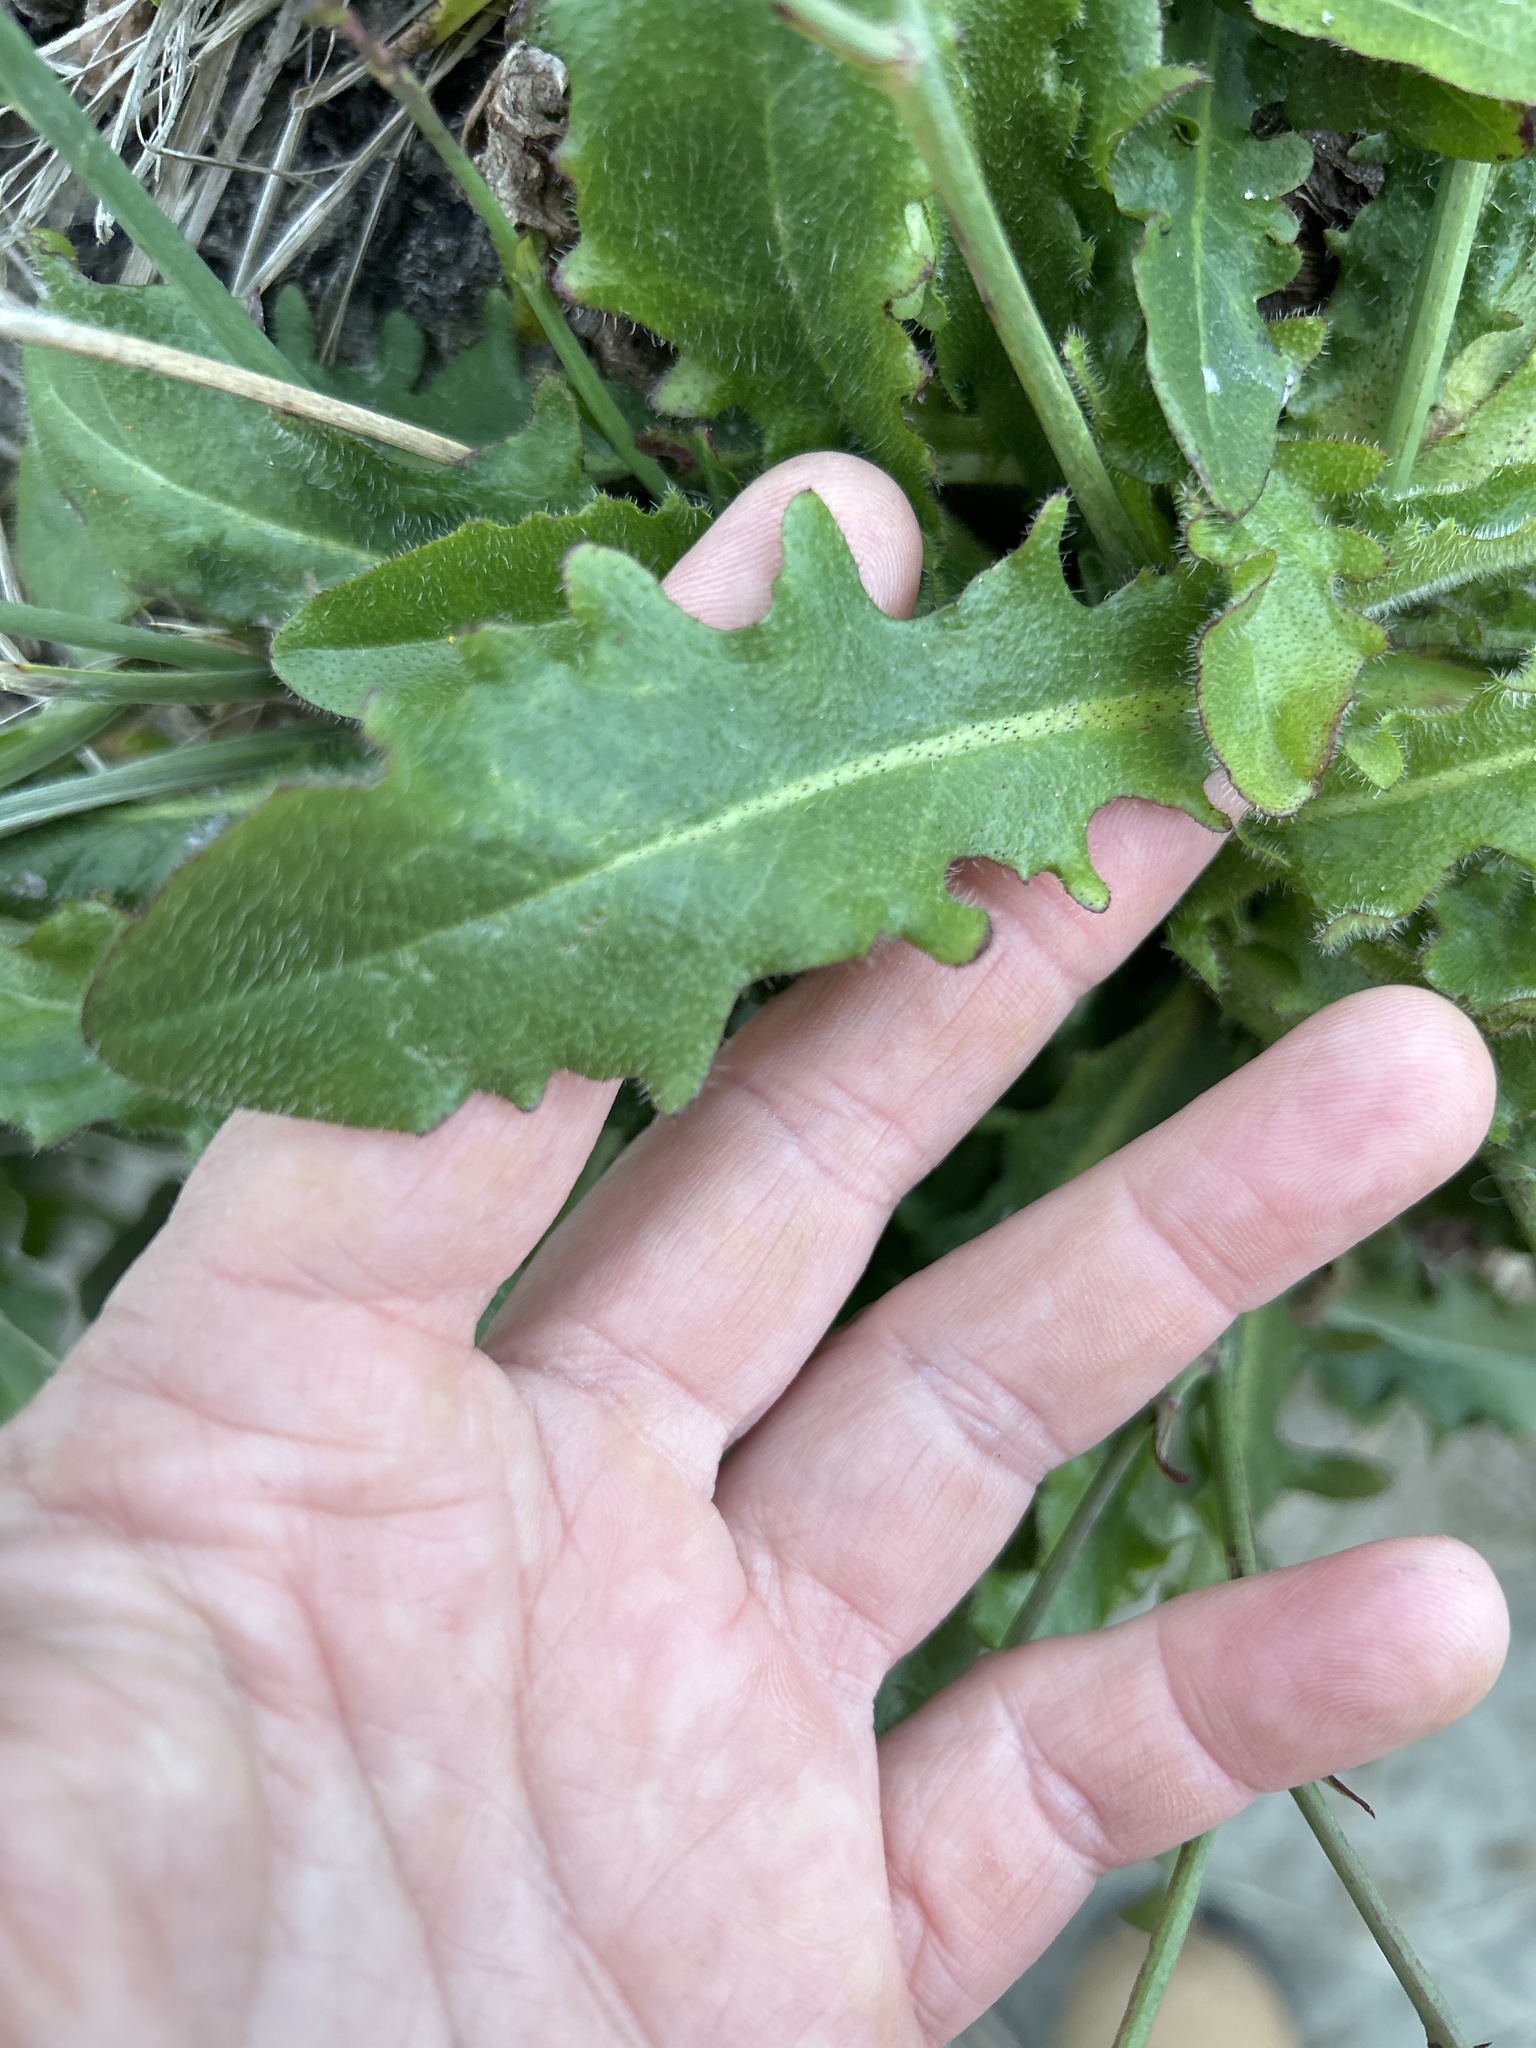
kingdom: Plantae
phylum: Tracheophyta
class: Magnoliopsida
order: Asterales
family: Asteraceae
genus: Hypochaeris
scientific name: Hypochaeris radicata
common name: Flatweed
